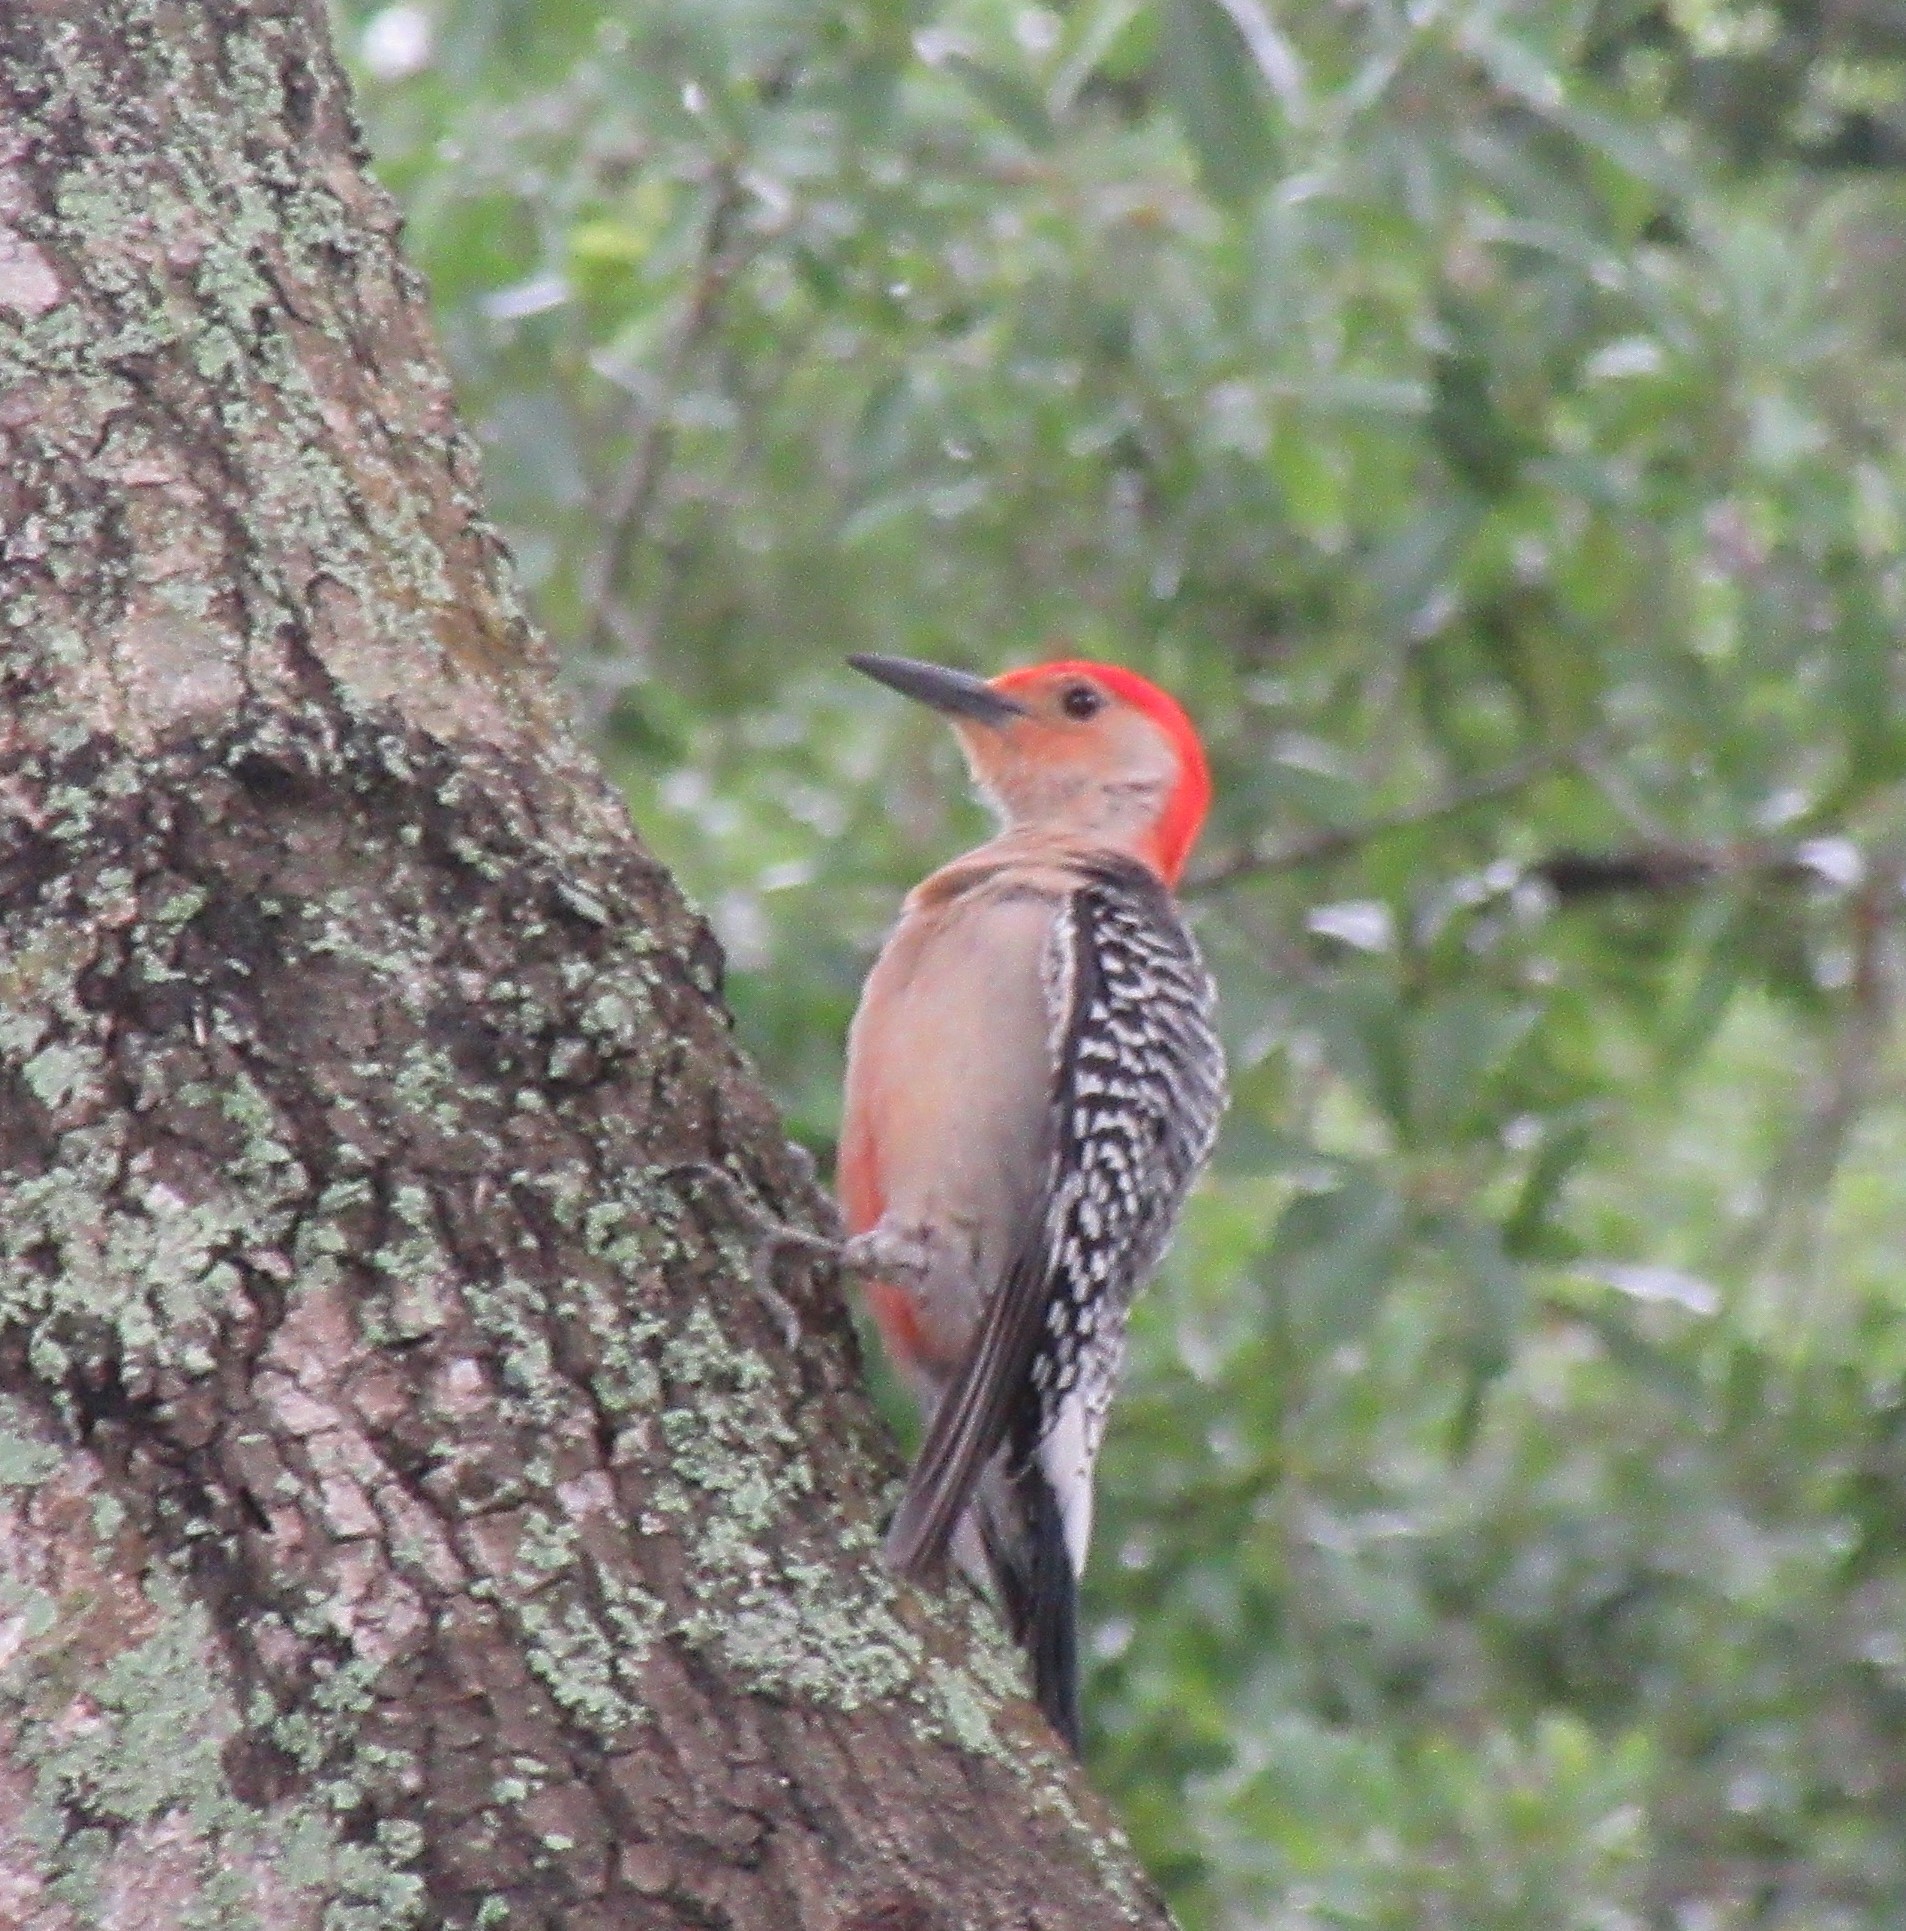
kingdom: Animalia
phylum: Chordata
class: Aves
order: Piciformes
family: Picidae
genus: Melanerpes
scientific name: Melanerpes carolinus
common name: Red-bellied woodpecker
